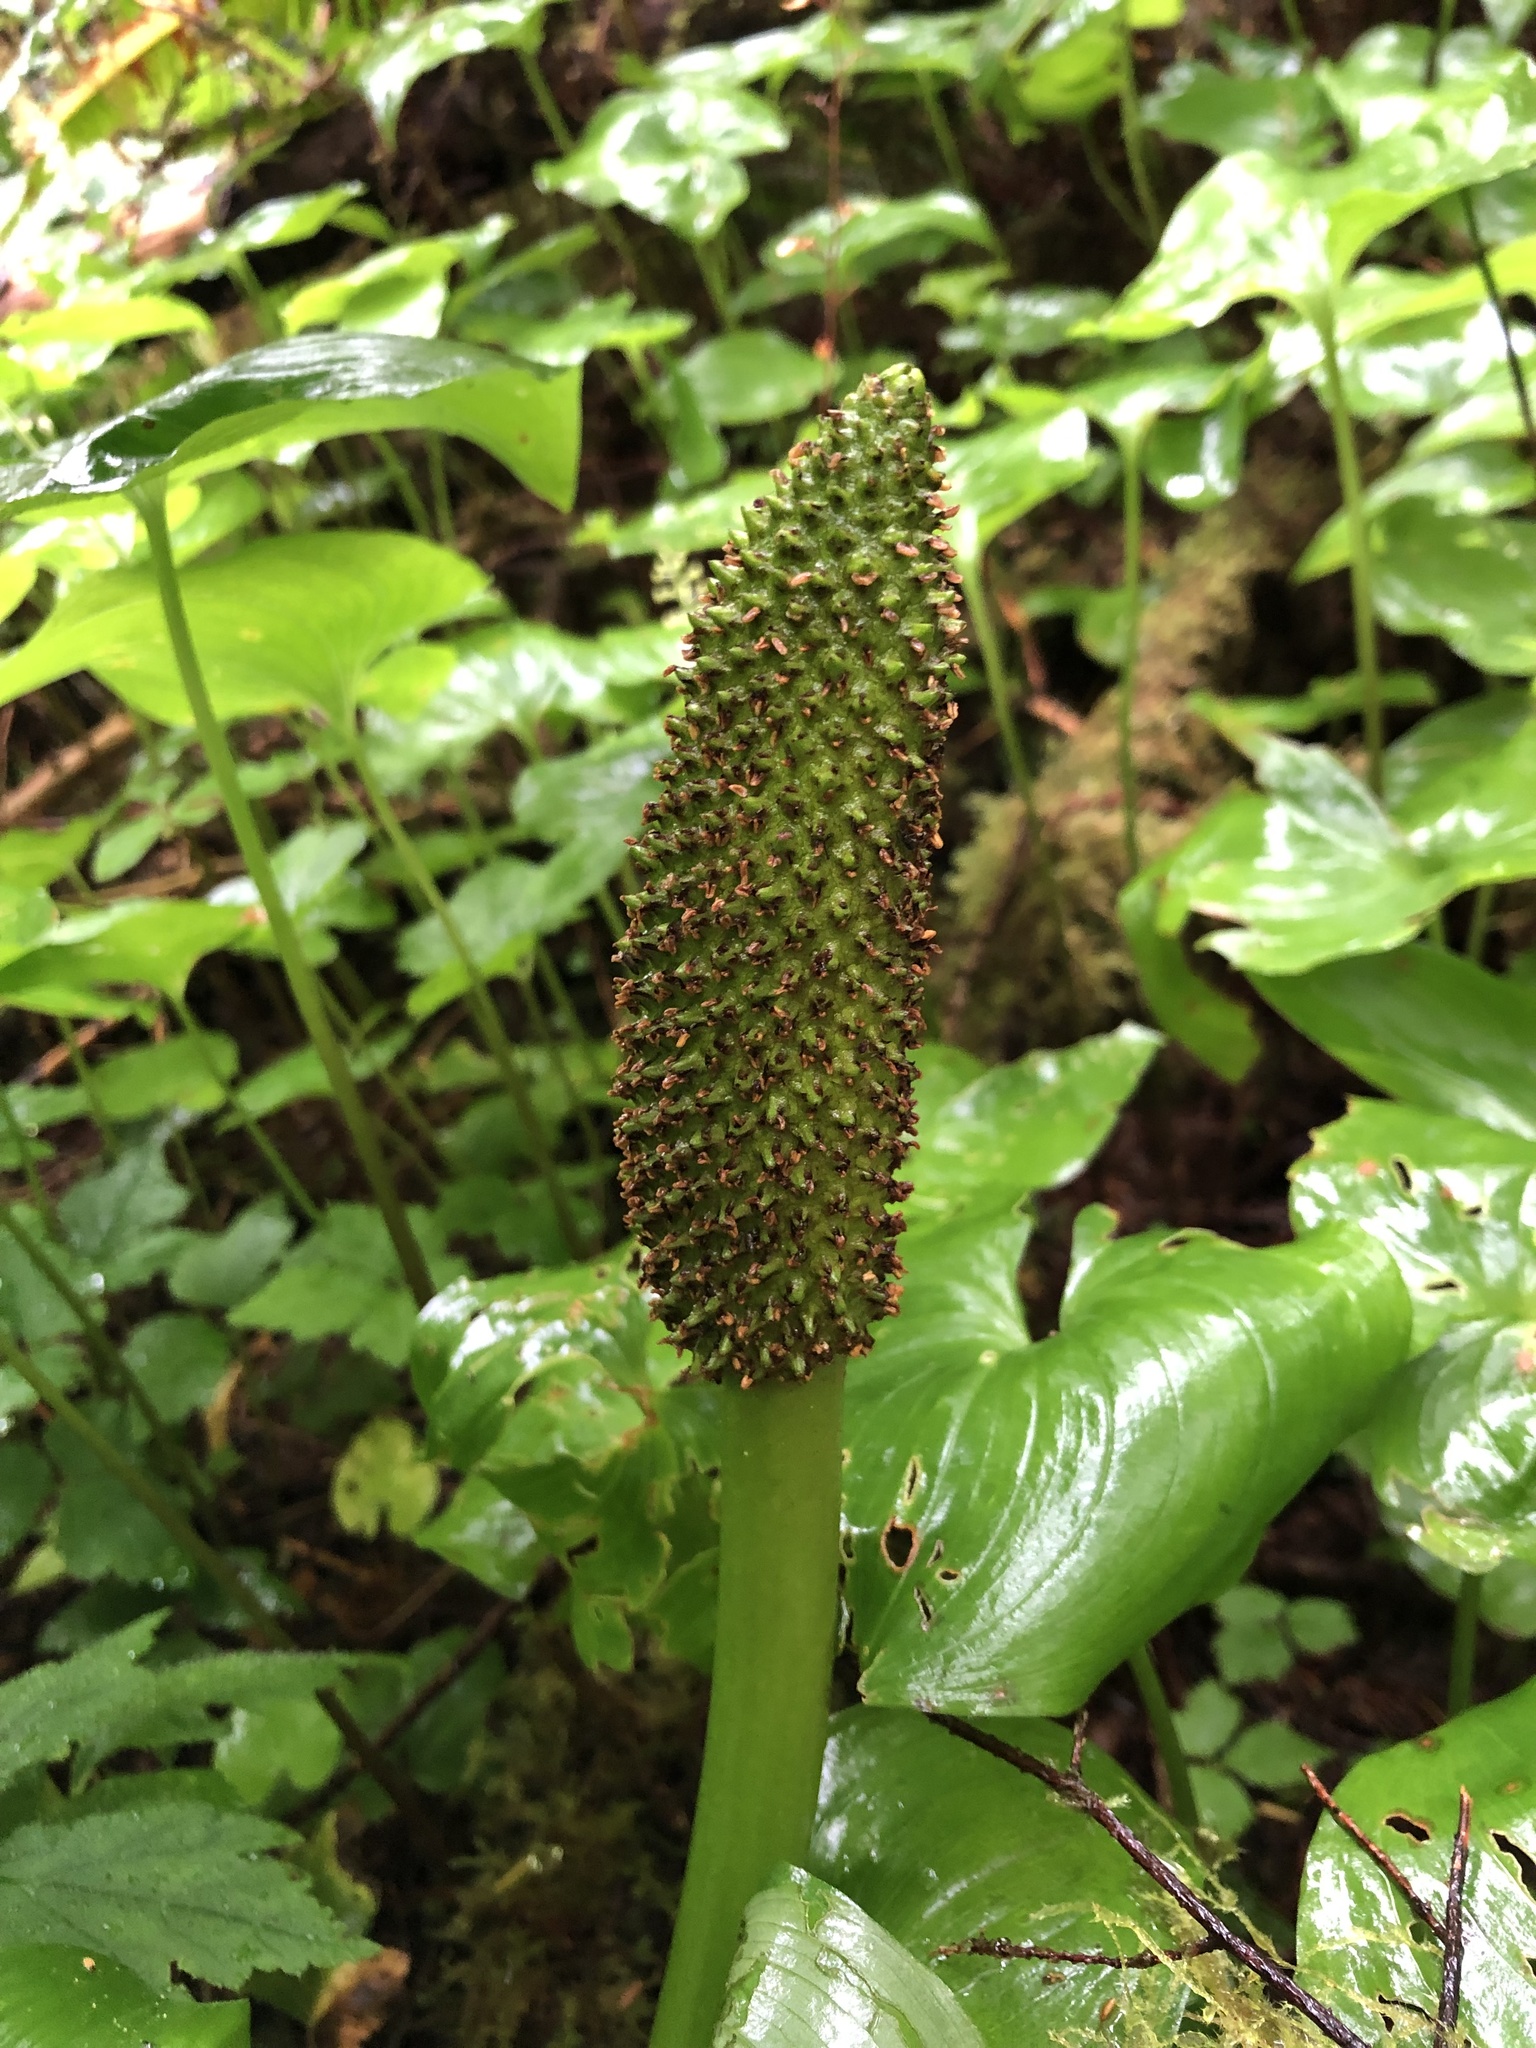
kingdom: Plantae
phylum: Tracheophyta
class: Liliopsida
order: Alismatales
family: Araceae
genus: Lysichiton
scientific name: Lysichiton americanus
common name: American skunk cabbage
